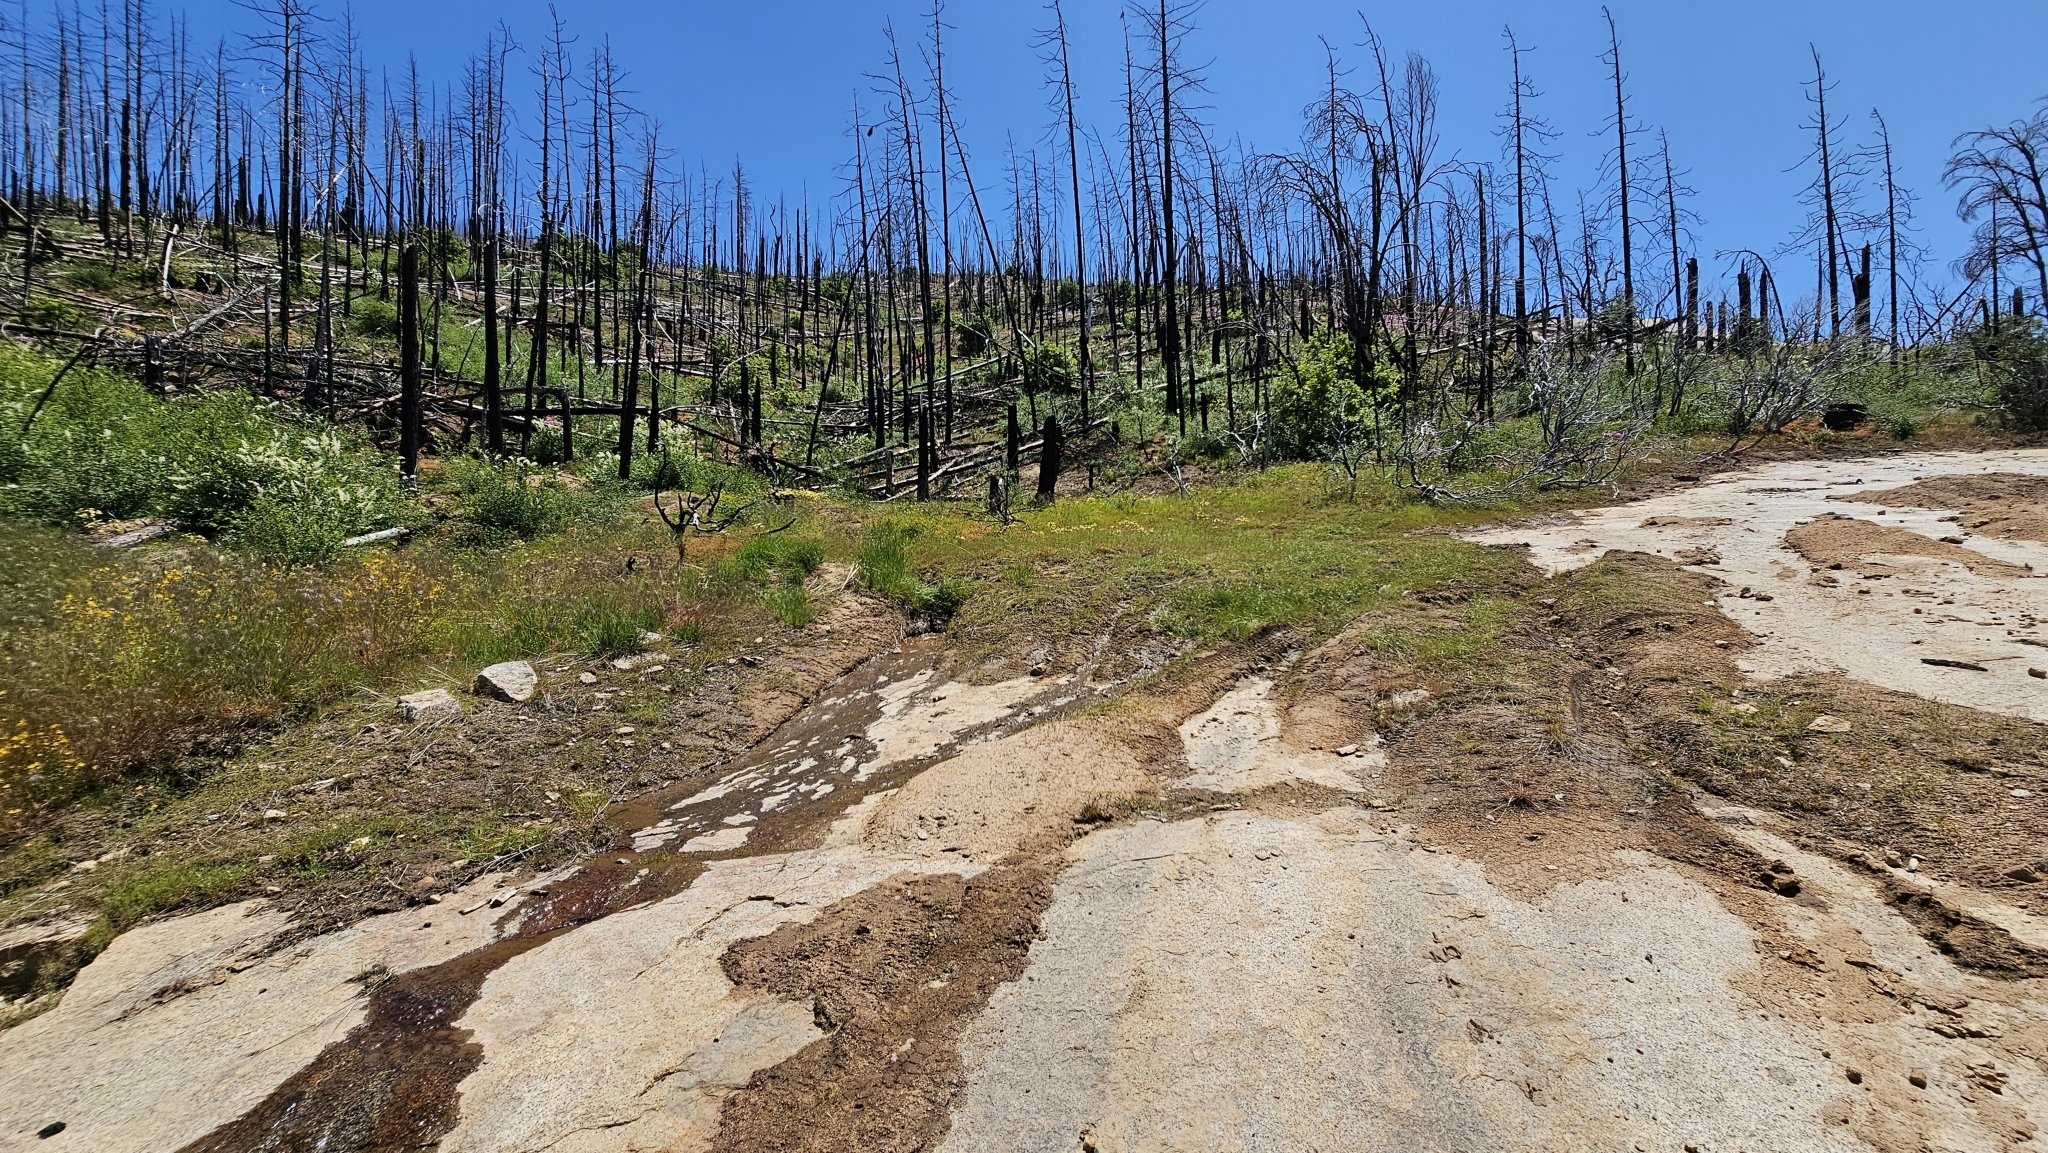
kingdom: Plantae
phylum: Tracheophyta
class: Magnoliopsida
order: Lamiales
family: Phrymaceae
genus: Erythranthe
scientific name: Erythranthe acutidens
